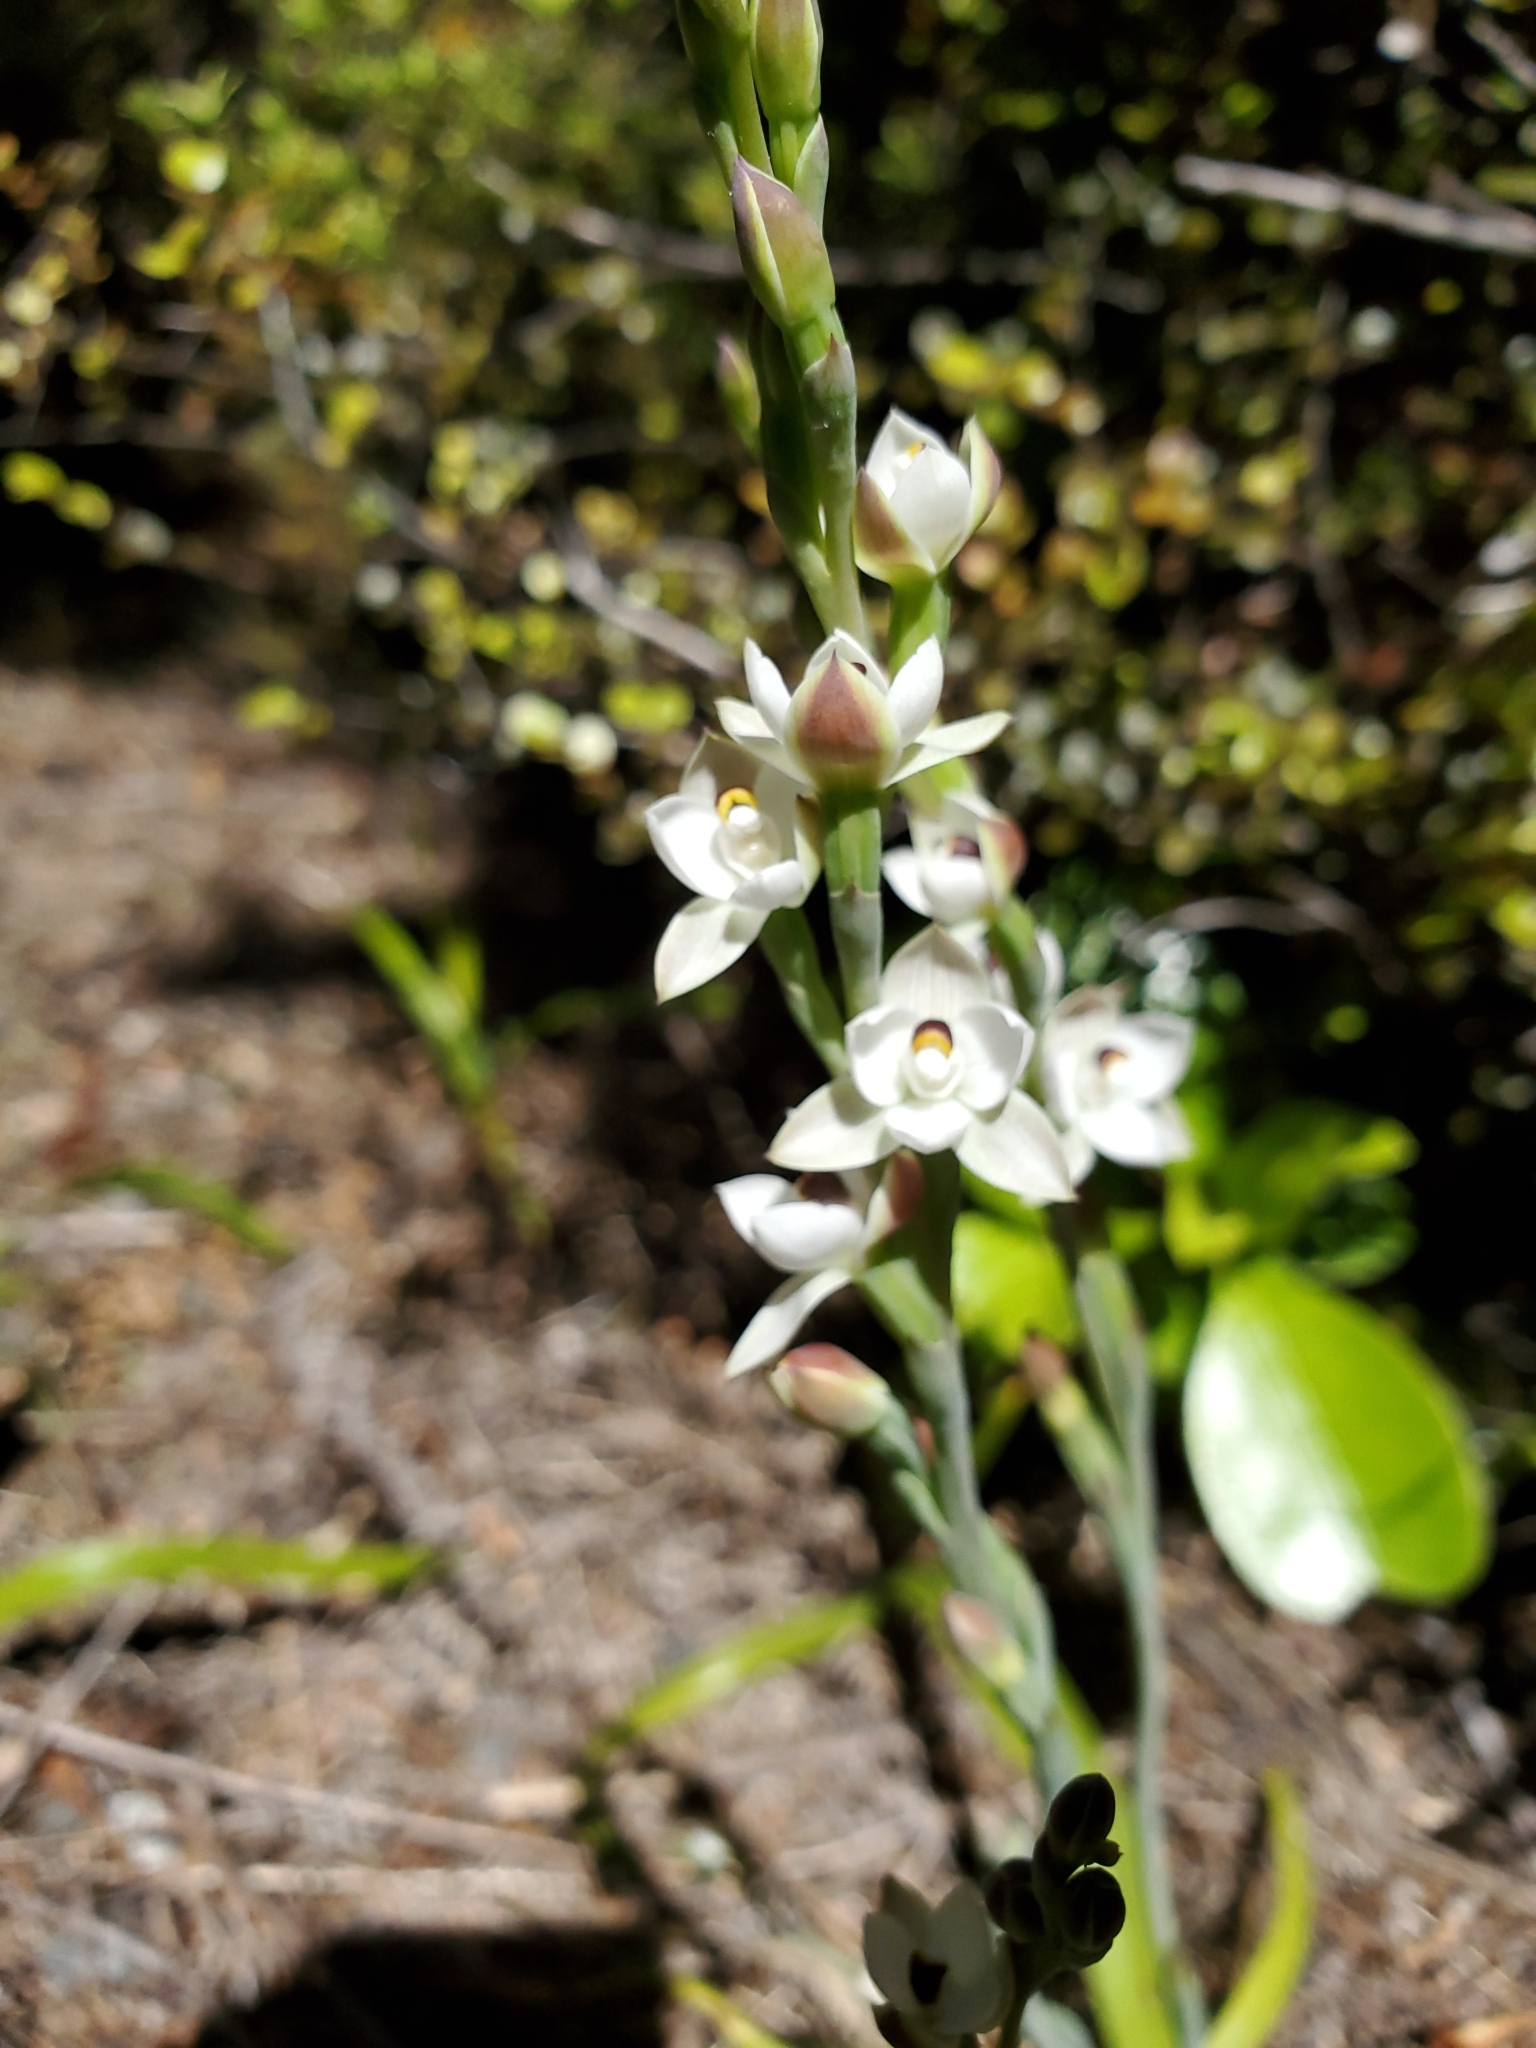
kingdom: Plantae
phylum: Tracheophyta
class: Liliopsida
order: Asparagales
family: Orchidaceae
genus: Thelymitra
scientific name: Thelymitra longifolia
